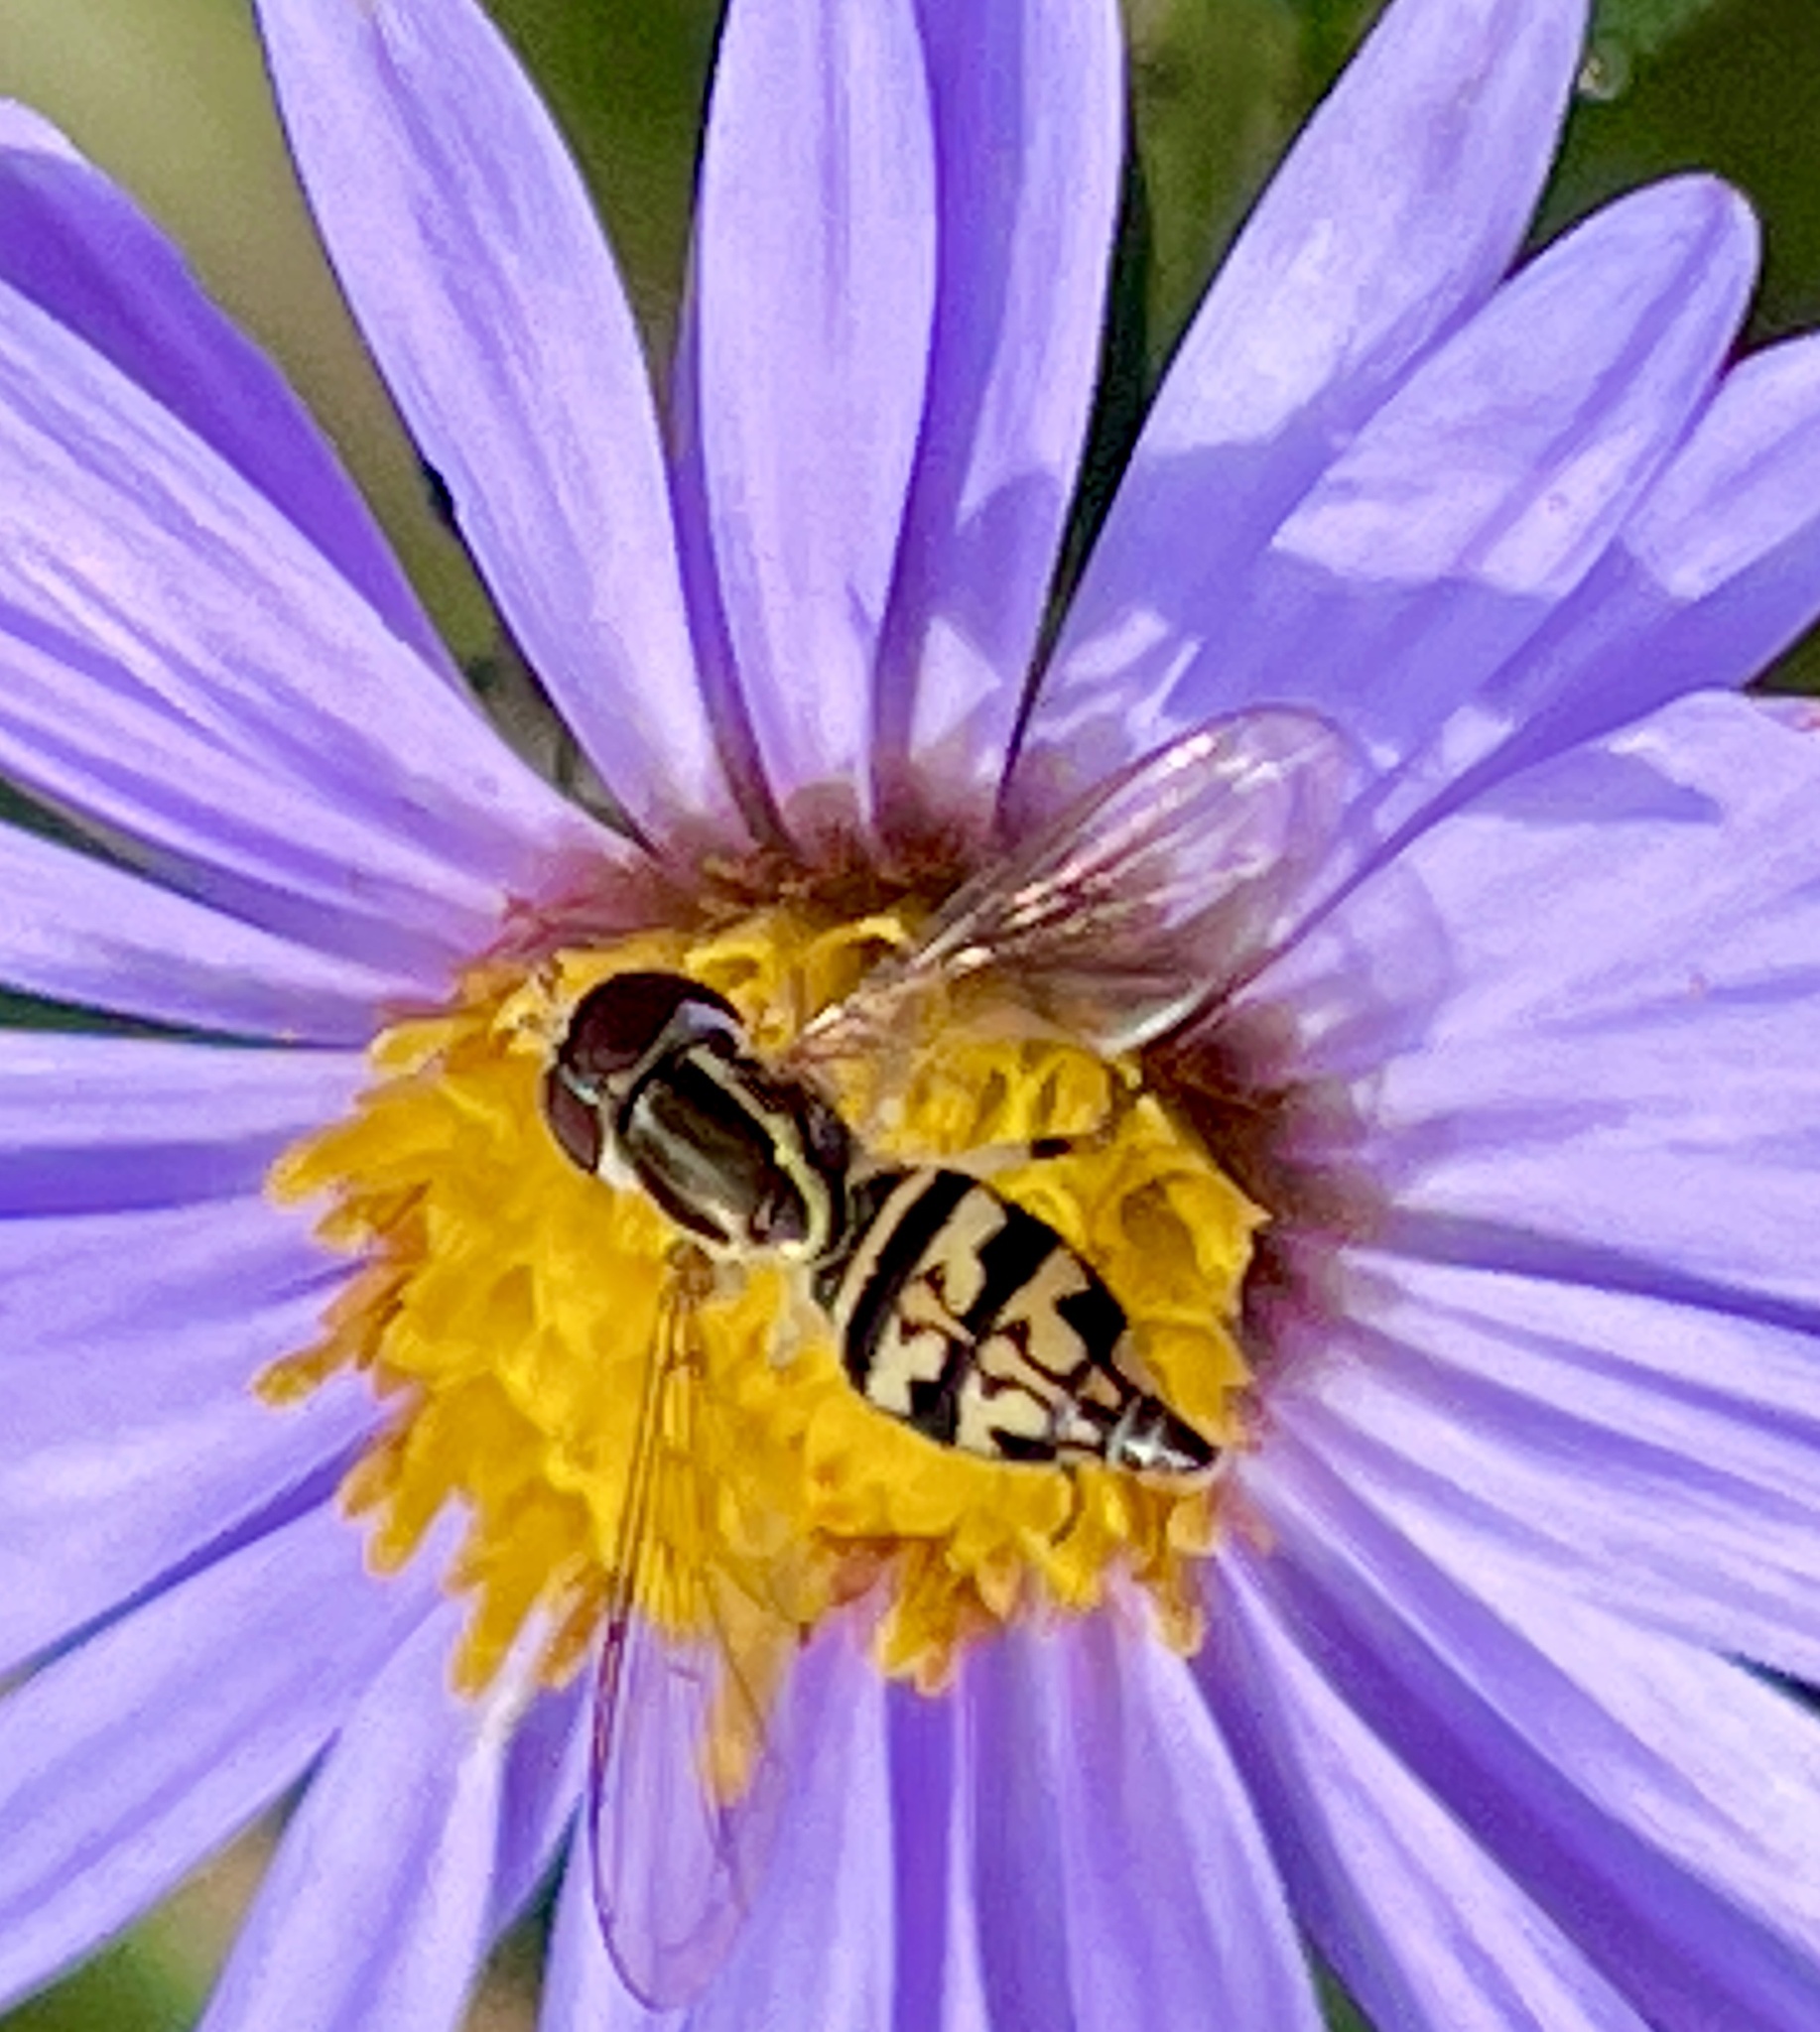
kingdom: Animalia
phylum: Arthropoda
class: Insecta
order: Diptera
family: Syrphidae
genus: Toxomerus
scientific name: Toxomerus geminatus
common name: Eastern calligrapher
